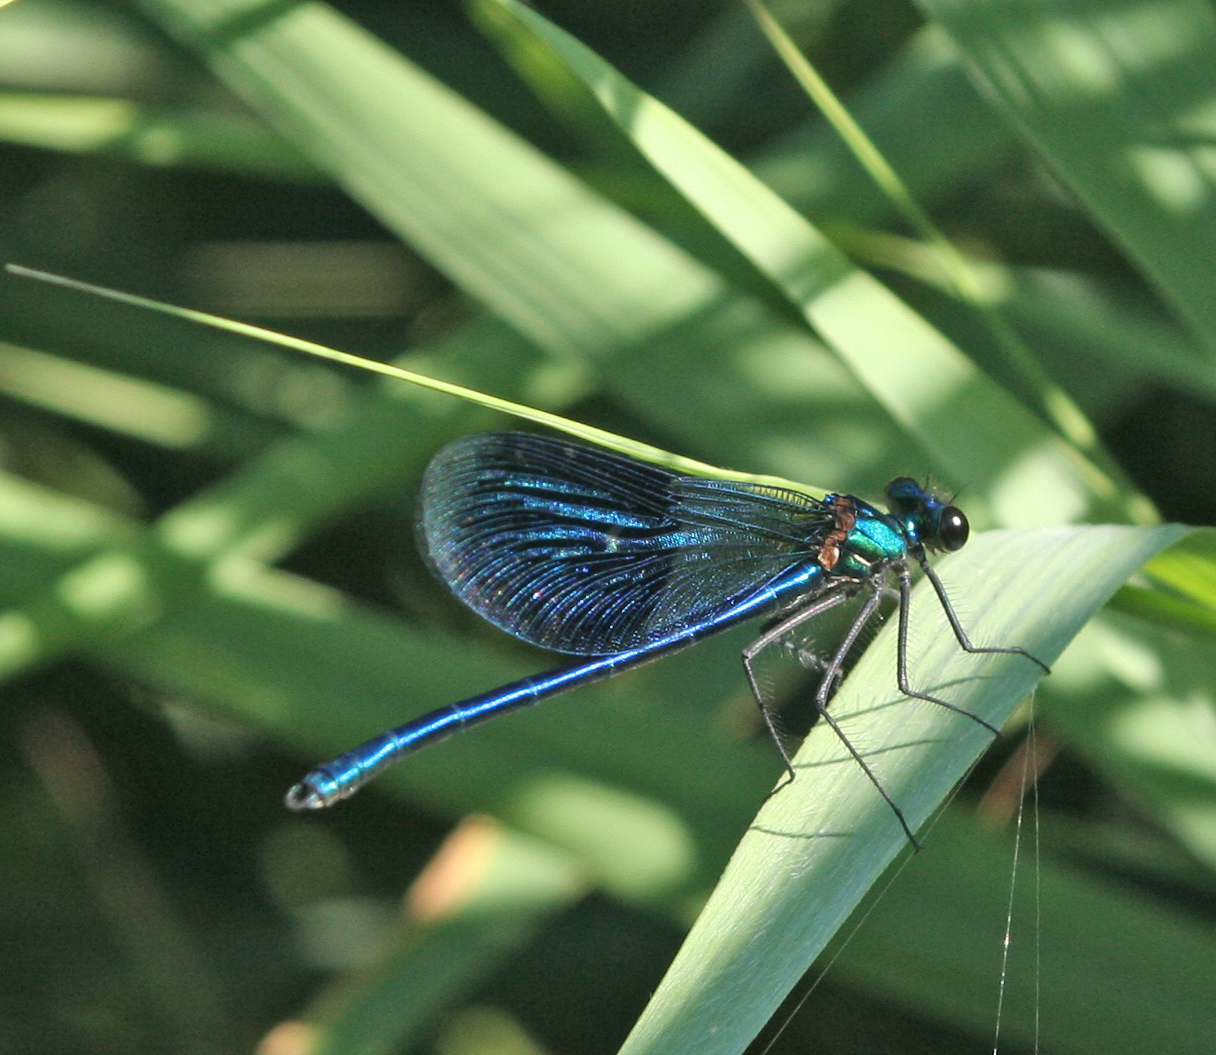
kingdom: Animalia
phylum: Arthropoda
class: Insecta
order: Odonata
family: Calopterygidae
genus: Calopteryx
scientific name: Calopteryx splendens
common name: Banded demoiselle
